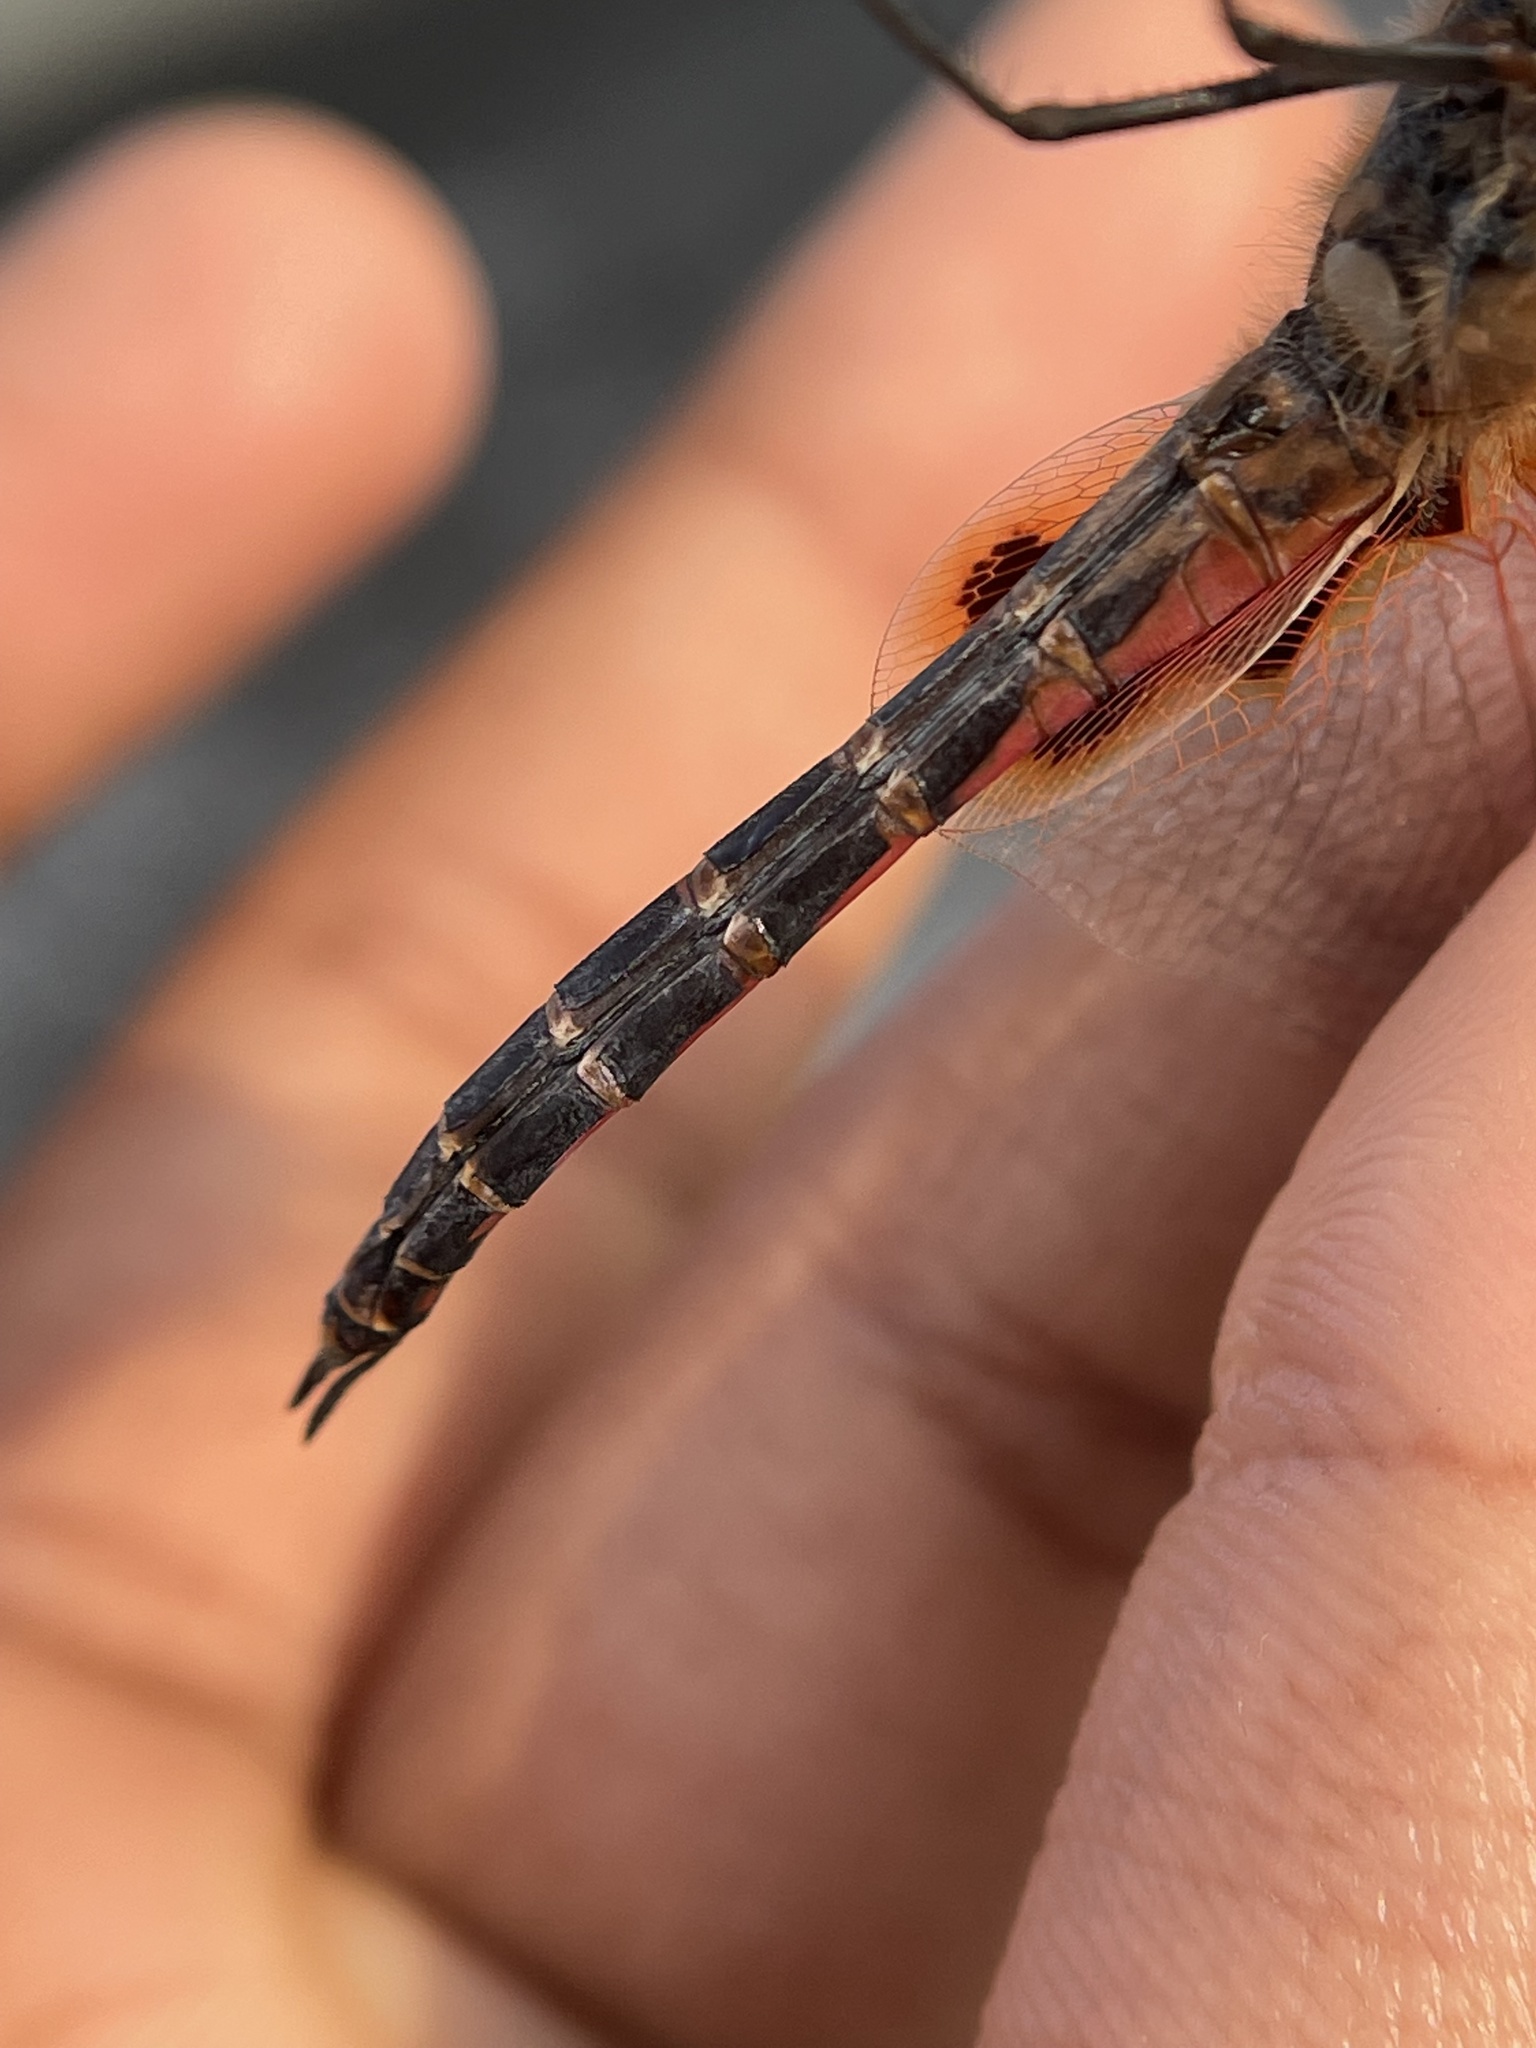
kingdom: Animalia
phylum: Arthropoda
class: Insecta
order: Odonata
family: Libellulidae
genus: Tramea
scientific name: Tramea basilaris
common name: Keyhole glider
